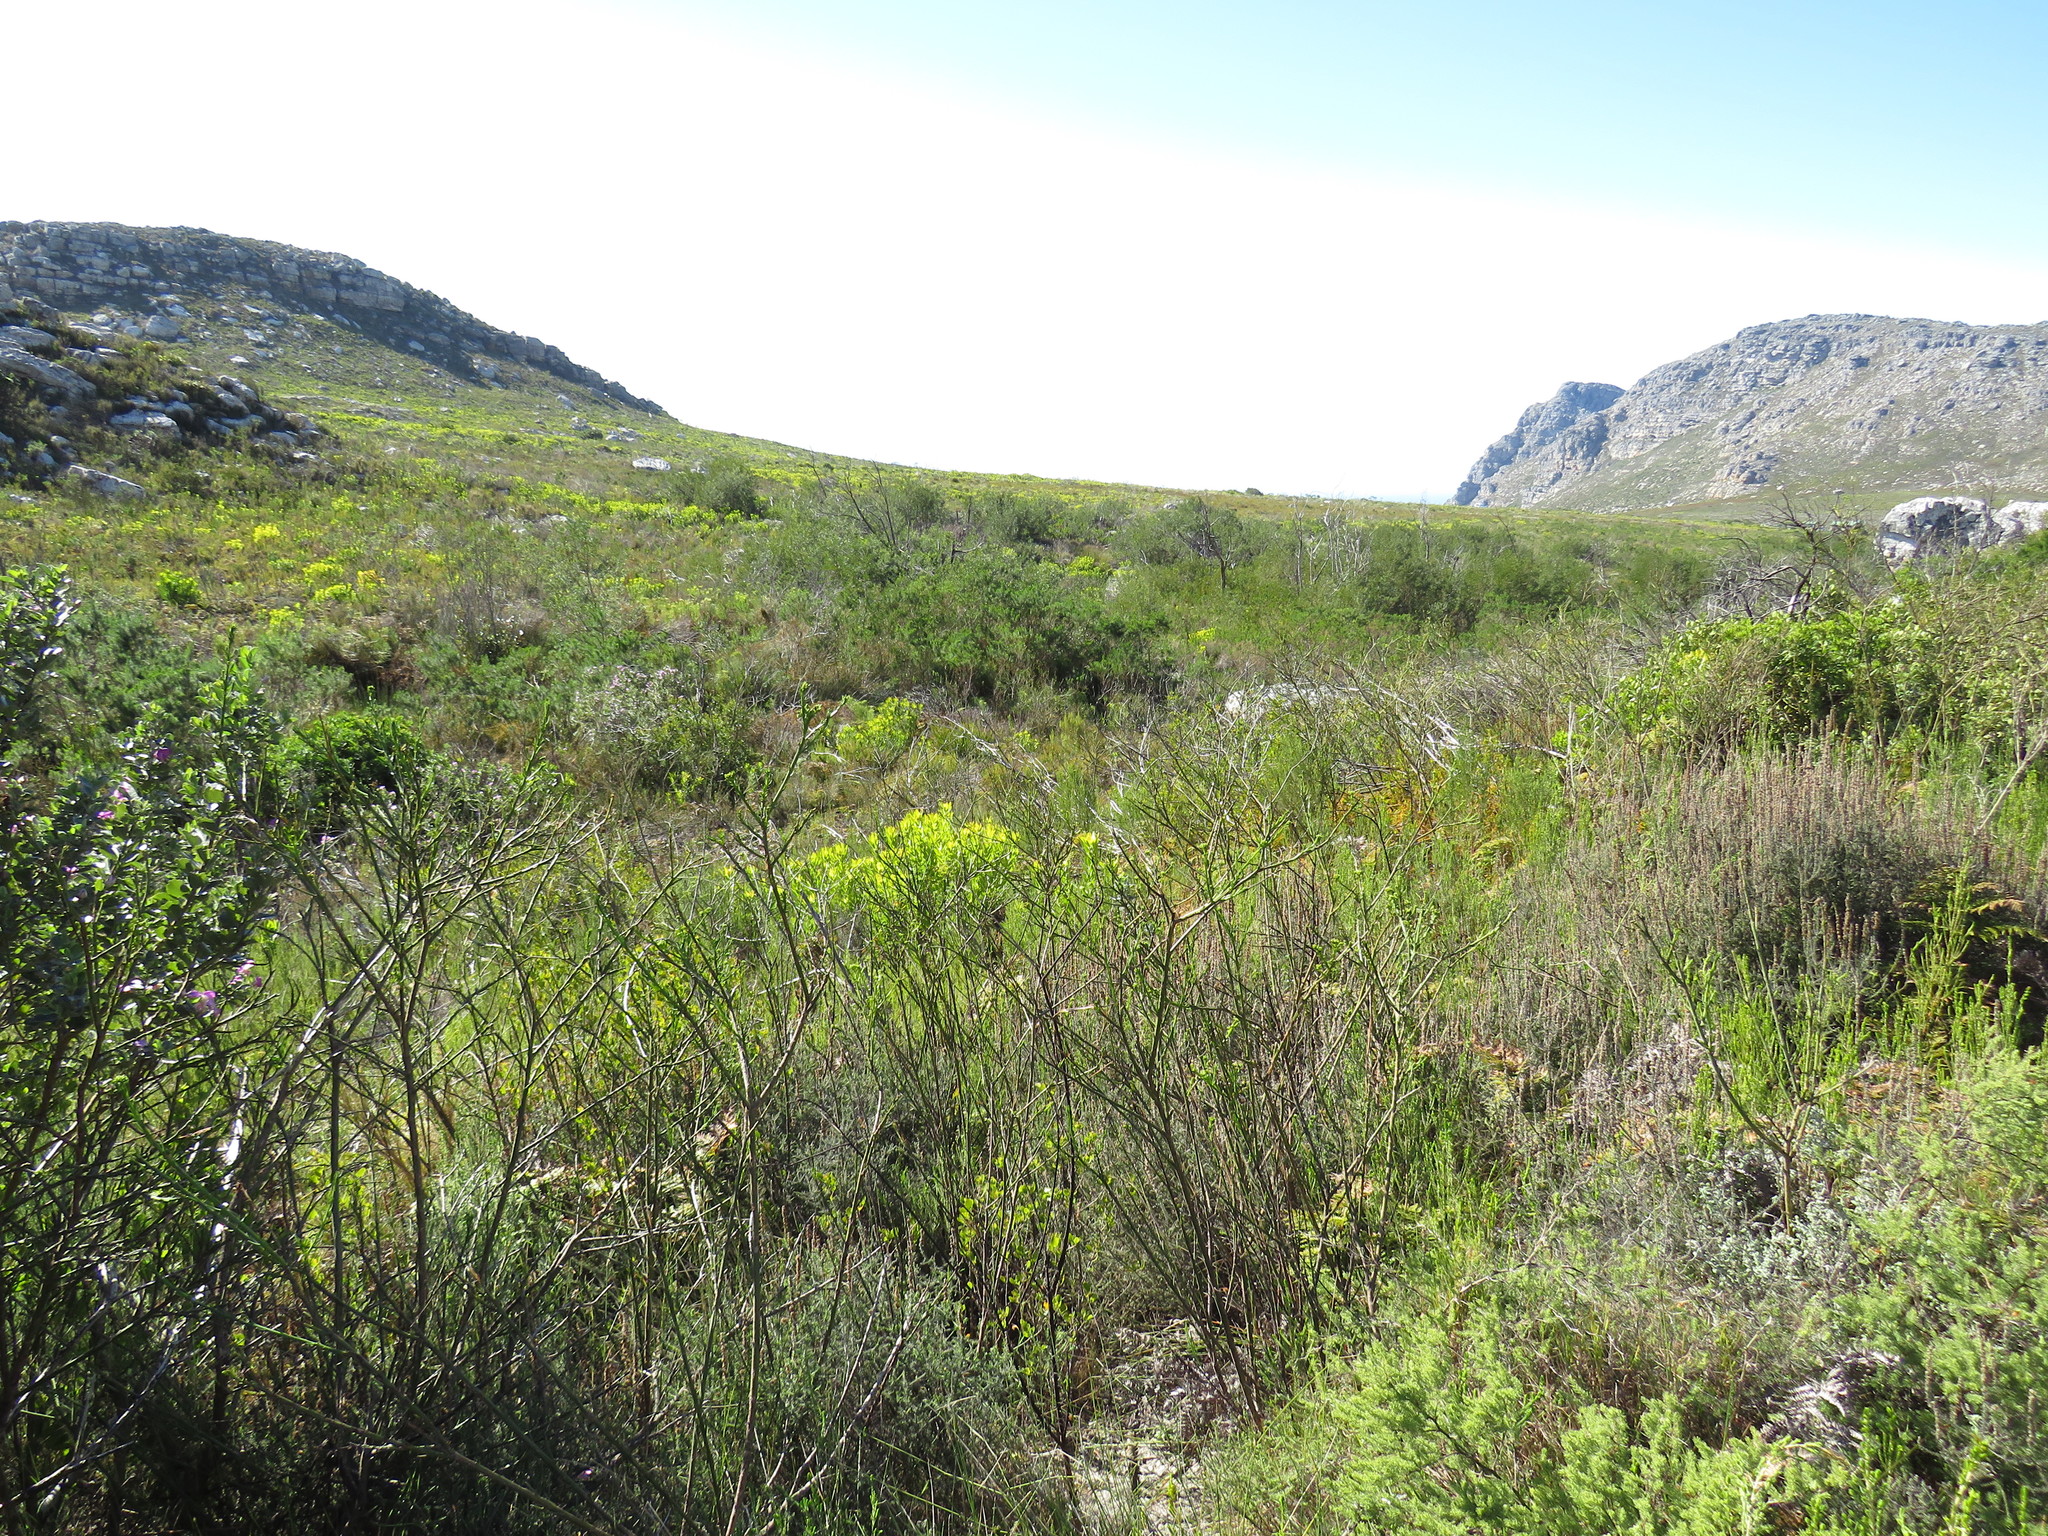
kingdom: Plantae
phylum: Tracheophyta
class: Magnoliopsida
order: Santalales
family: Thesiaceae
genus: Thesium
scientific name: Thesium strictum
